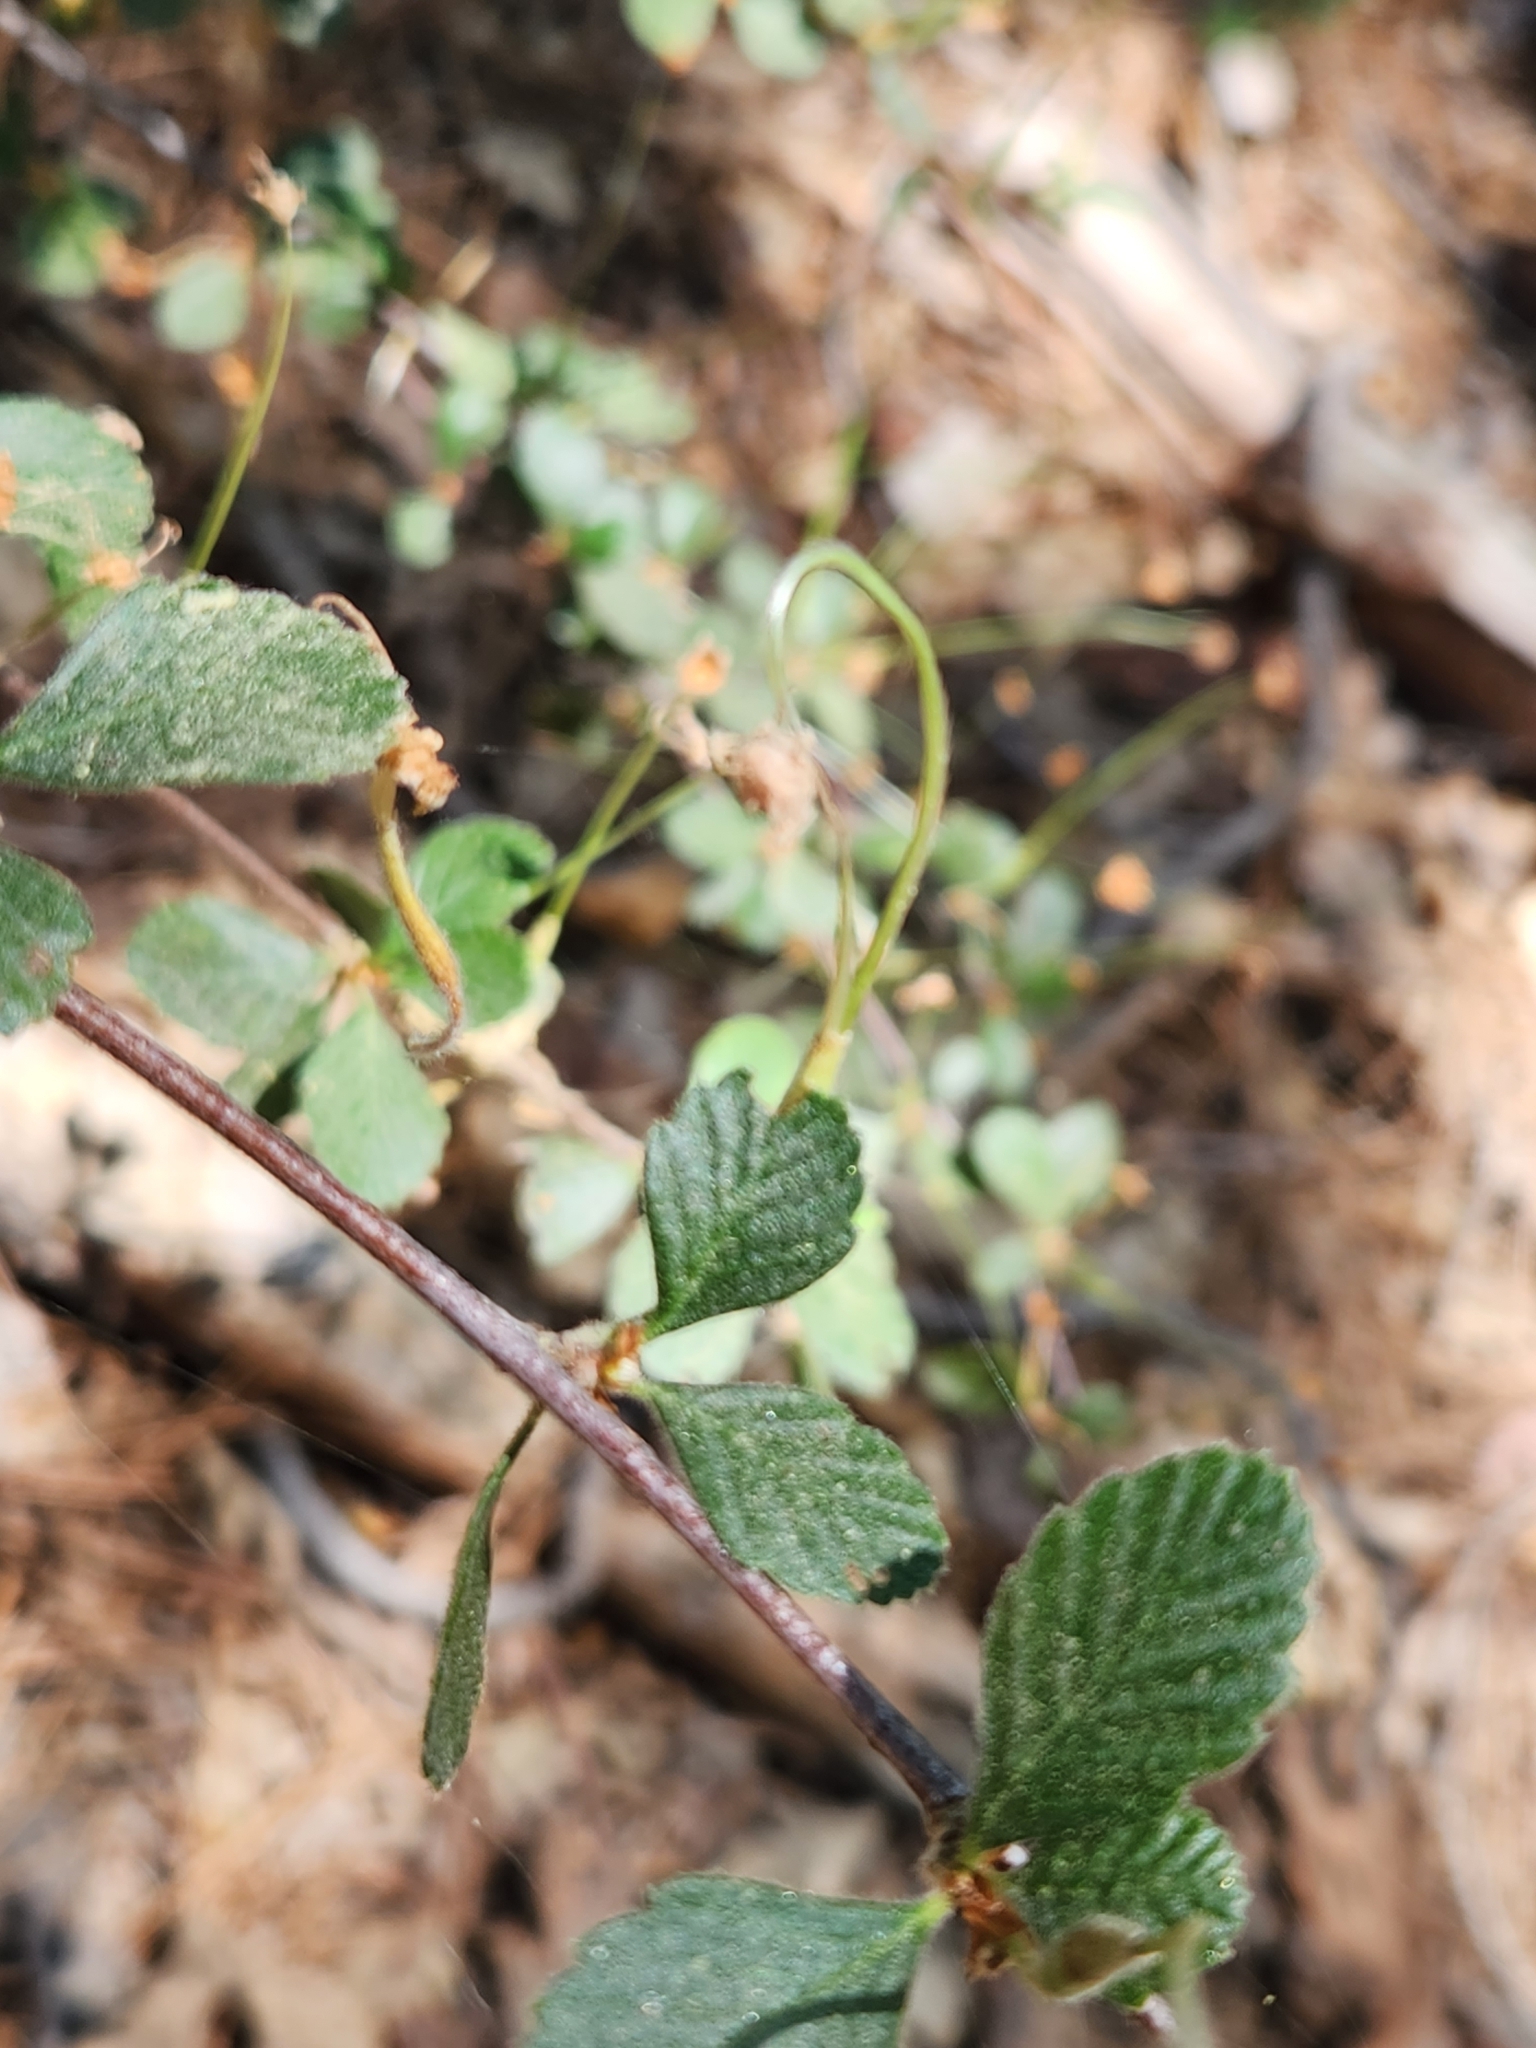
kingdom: Plantae
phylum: Tracheophyta
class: Magnoliopsida
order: Rosales
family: Rosaceae
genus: Cercocarpus
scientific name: Cercocarpus betuloides
